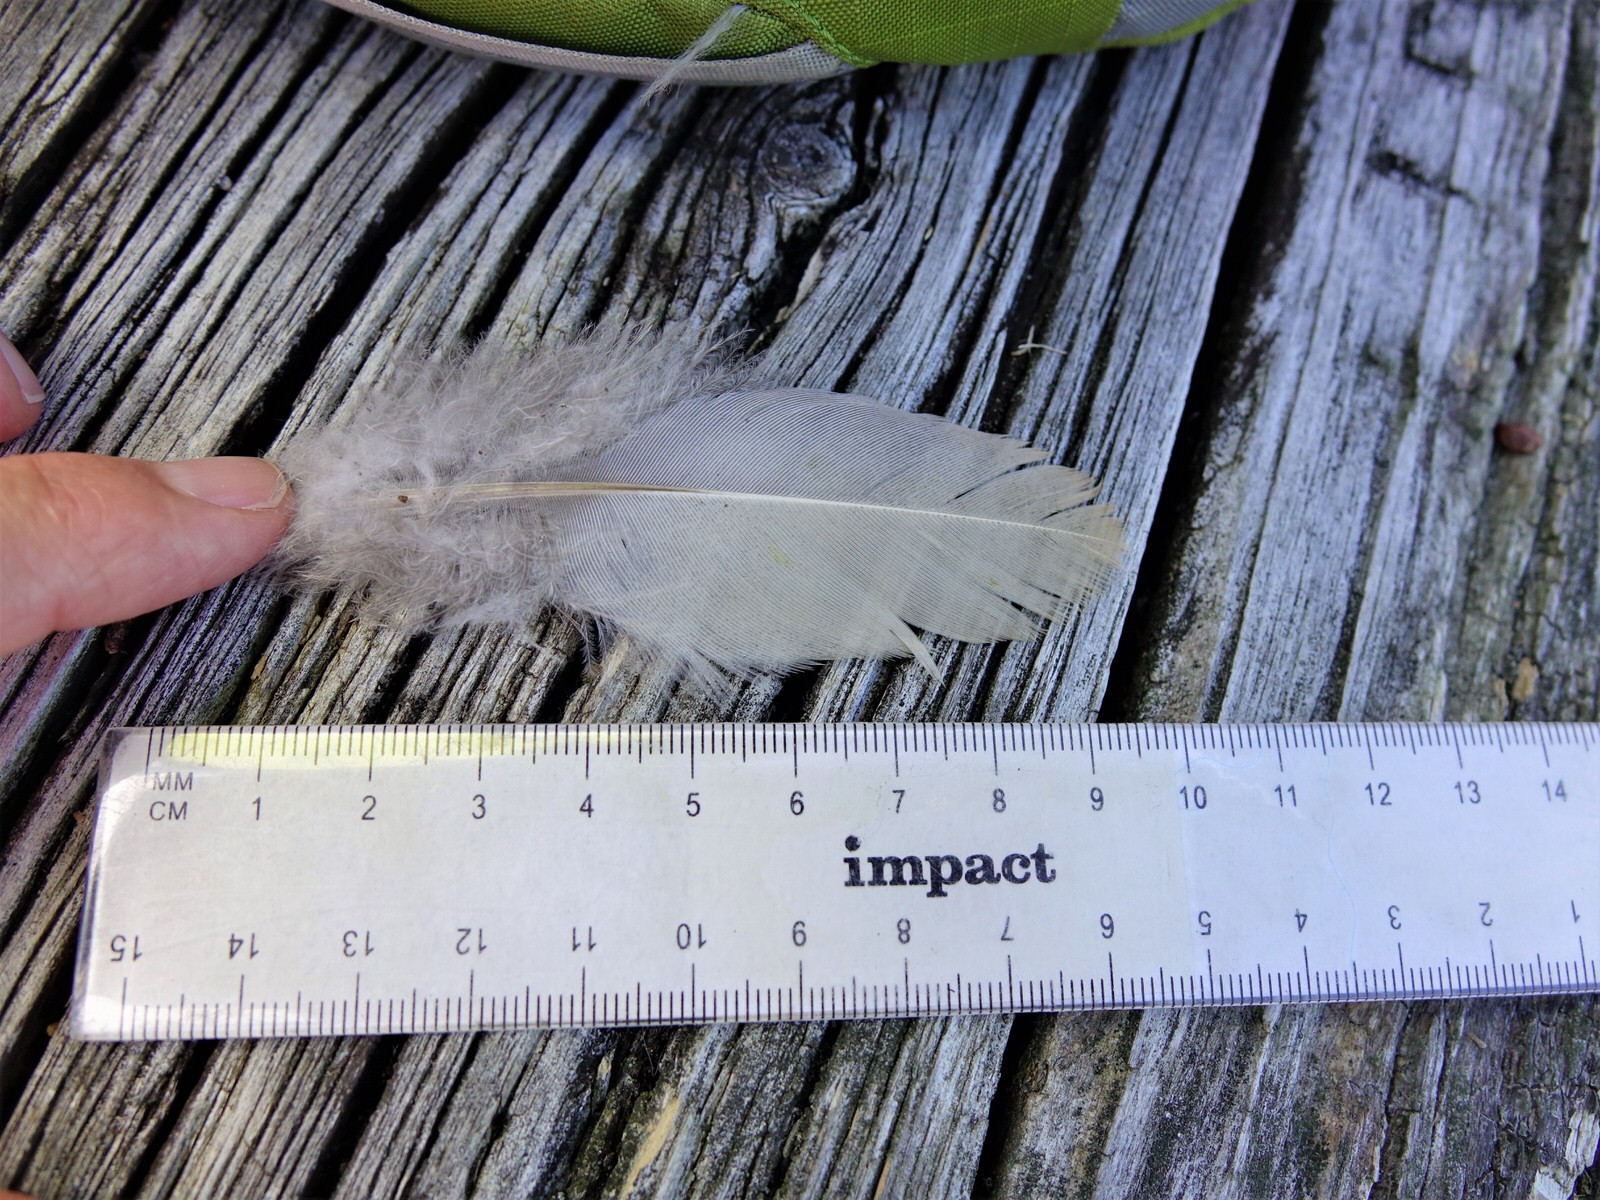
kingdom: Animalia
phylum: Chordata
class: Aves
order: Columbiformes
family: Columbidae
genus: Columba
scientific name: Columba livia
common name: Rock pigeon
